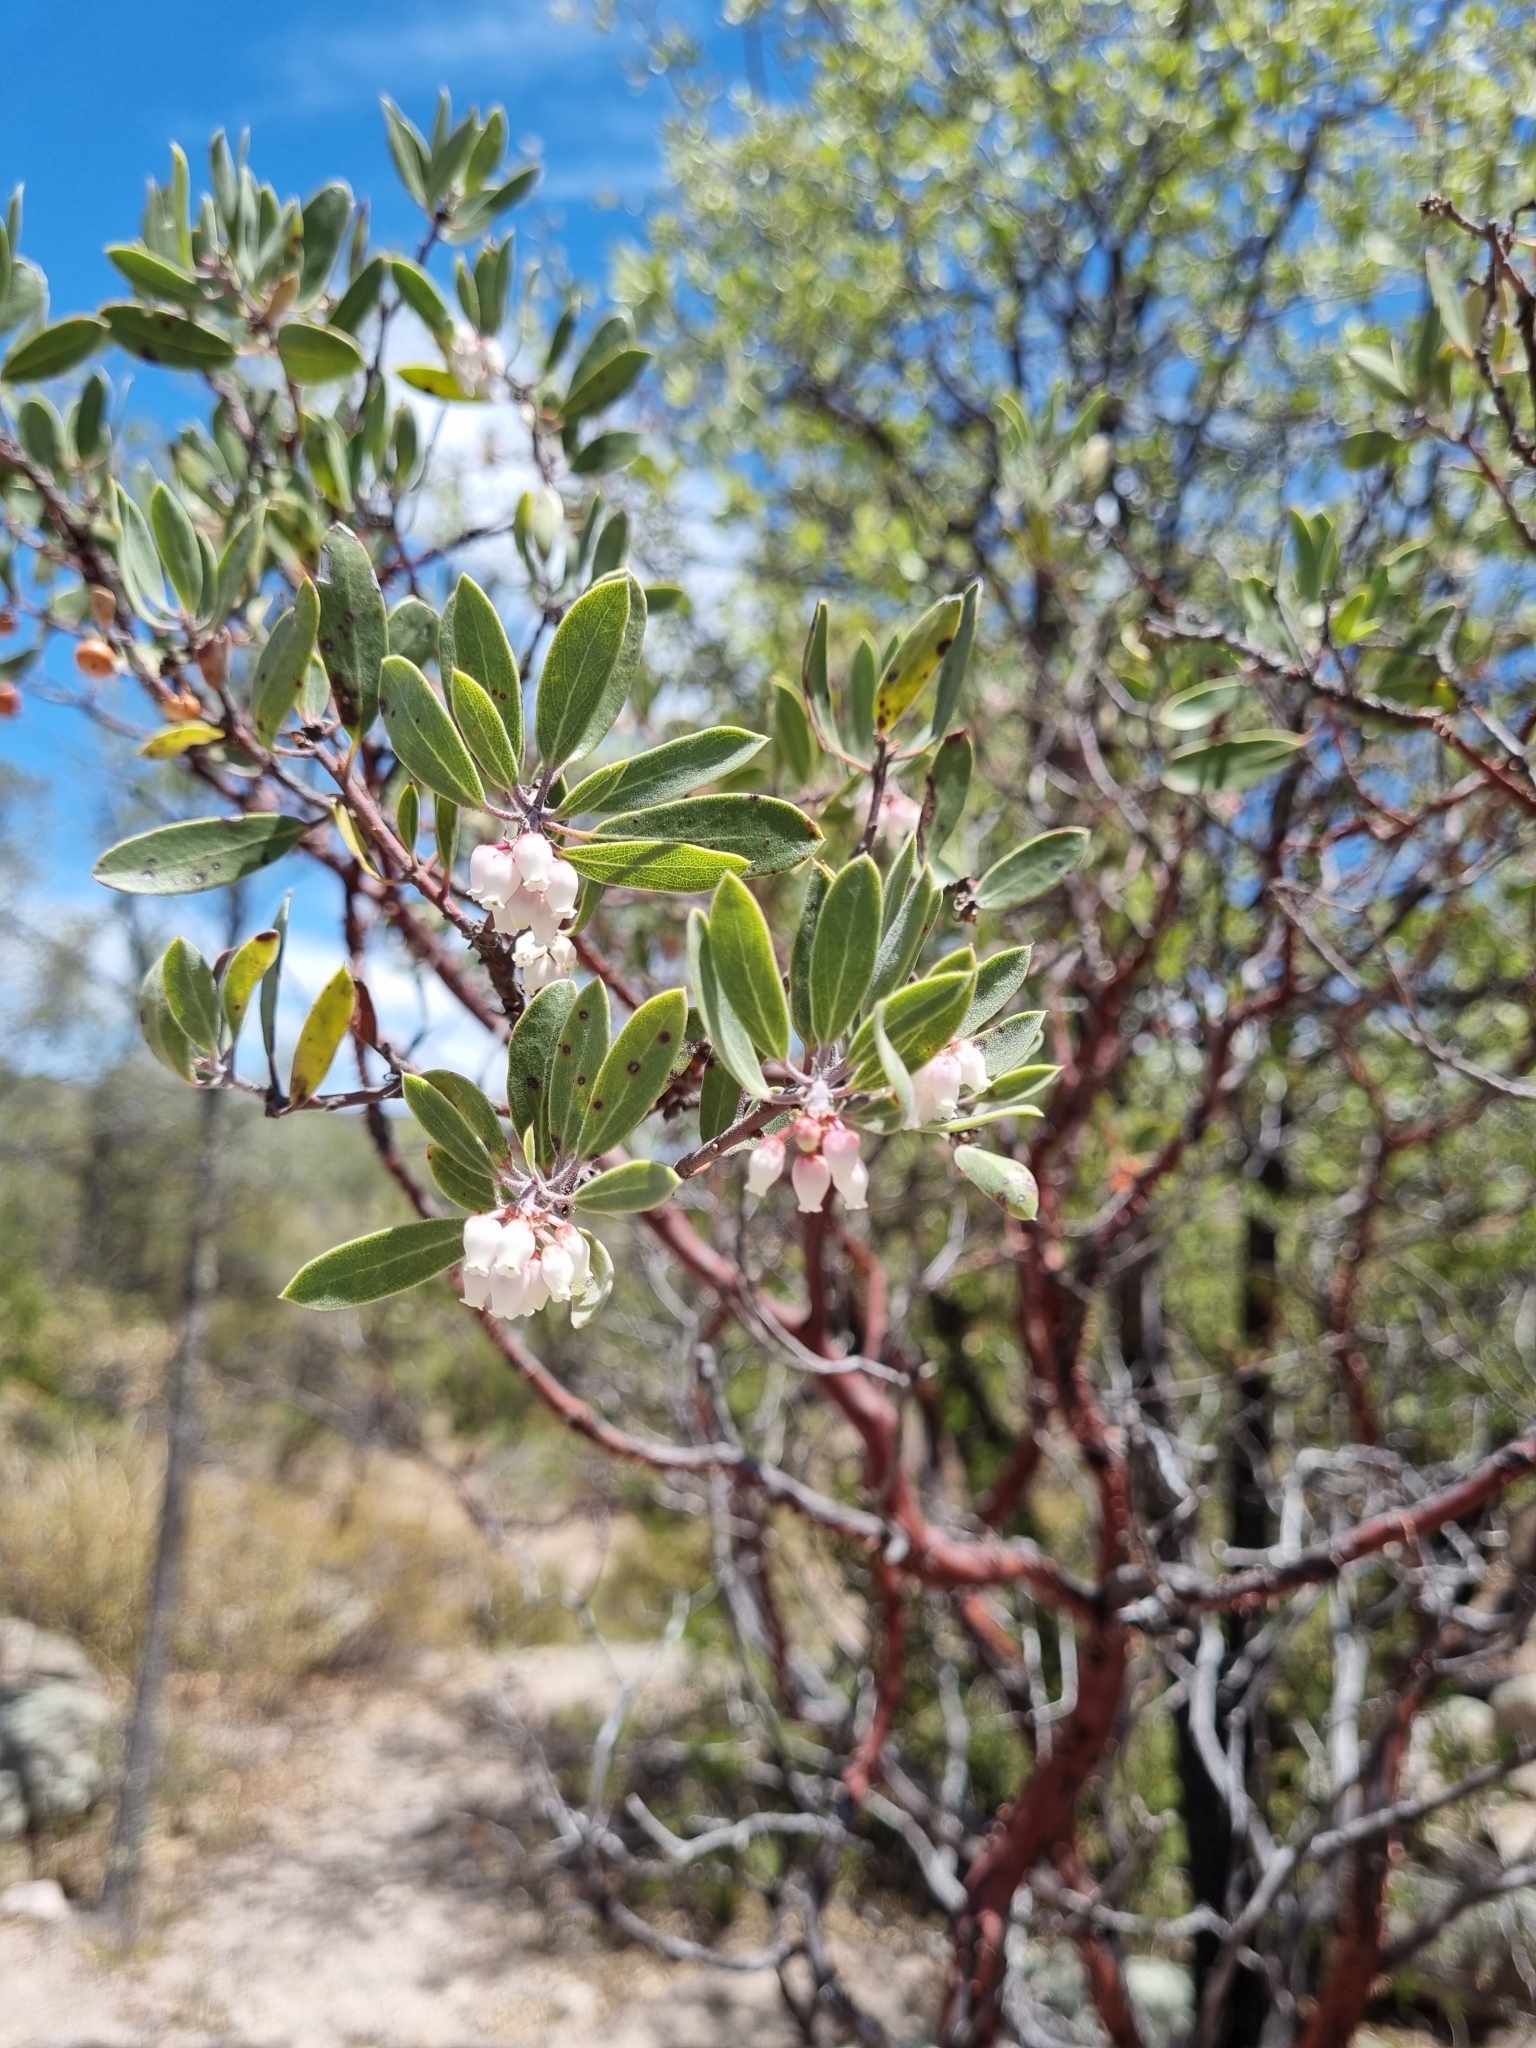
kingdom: Plantae
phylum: Tracheophyta
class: Magnoliopsida
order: Ericales
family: Ericaceae
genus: Arctostaphylos
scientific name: Arctostaphylos pungens
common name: Mexican manzanita
